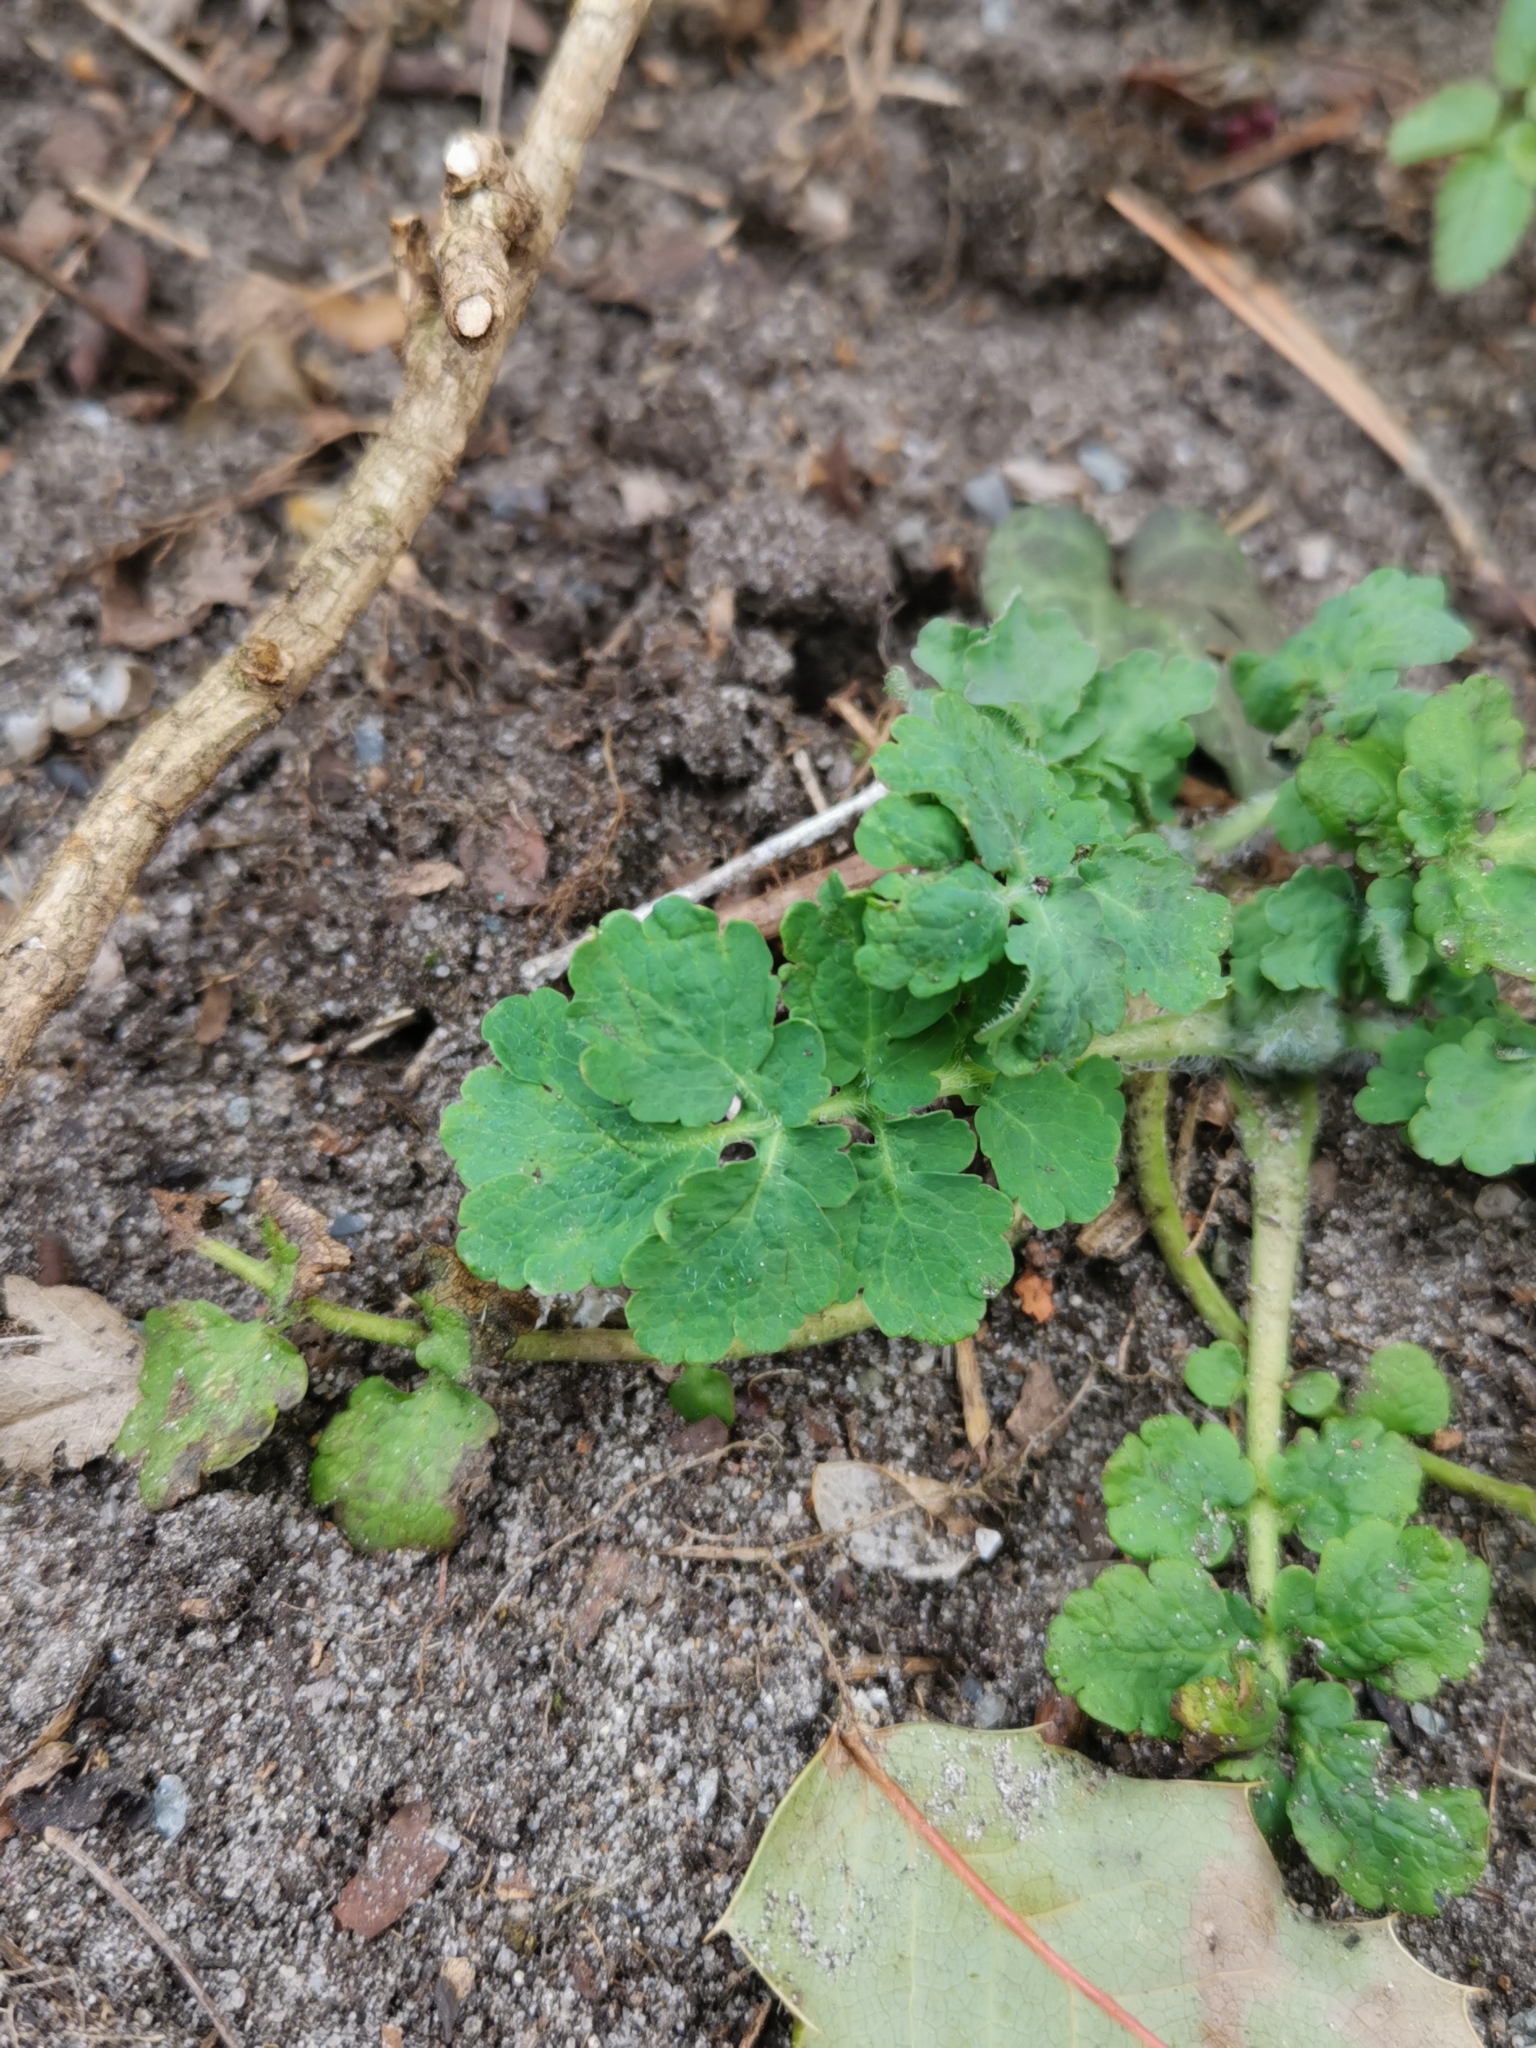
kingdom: Plantae
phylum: Tracheophyta
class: Magnoliopsida
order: Ranunculales
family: Papaveraceae
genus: Chelidonium
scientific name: Chelidonium majus
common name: Greater celandine
